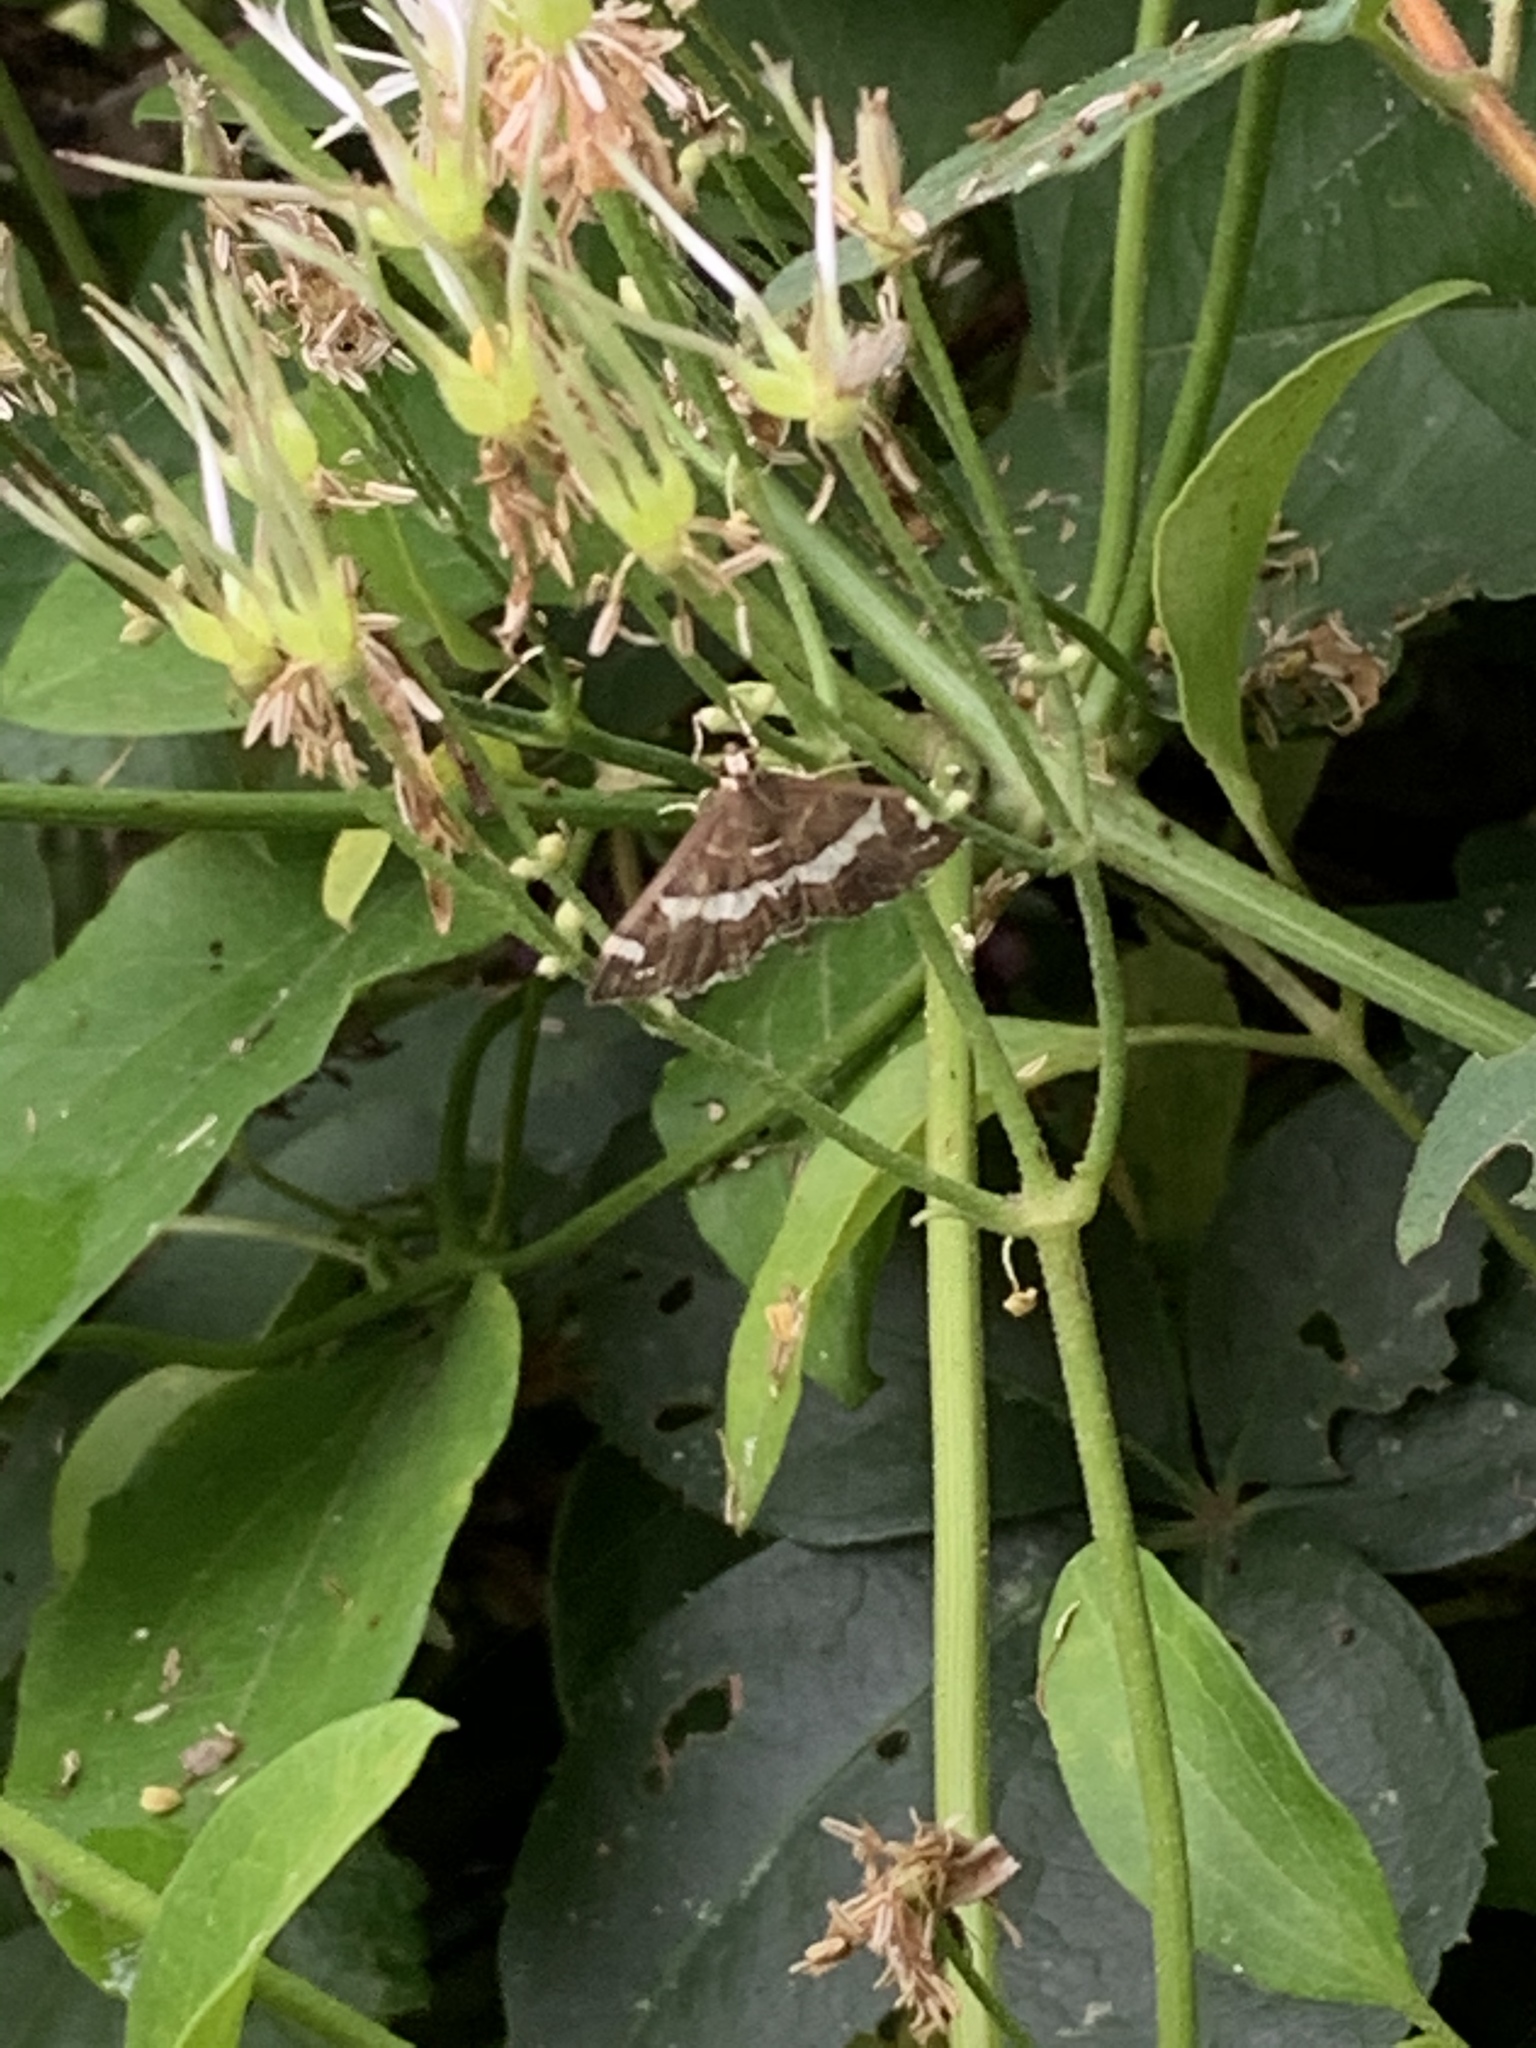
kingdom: Animalia
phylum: Arthropoda
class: Insecta
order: Lepidoptera
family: Crambidae
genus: Spoladea
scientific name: Spoladea recurvalis
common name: Beet webworm moth
